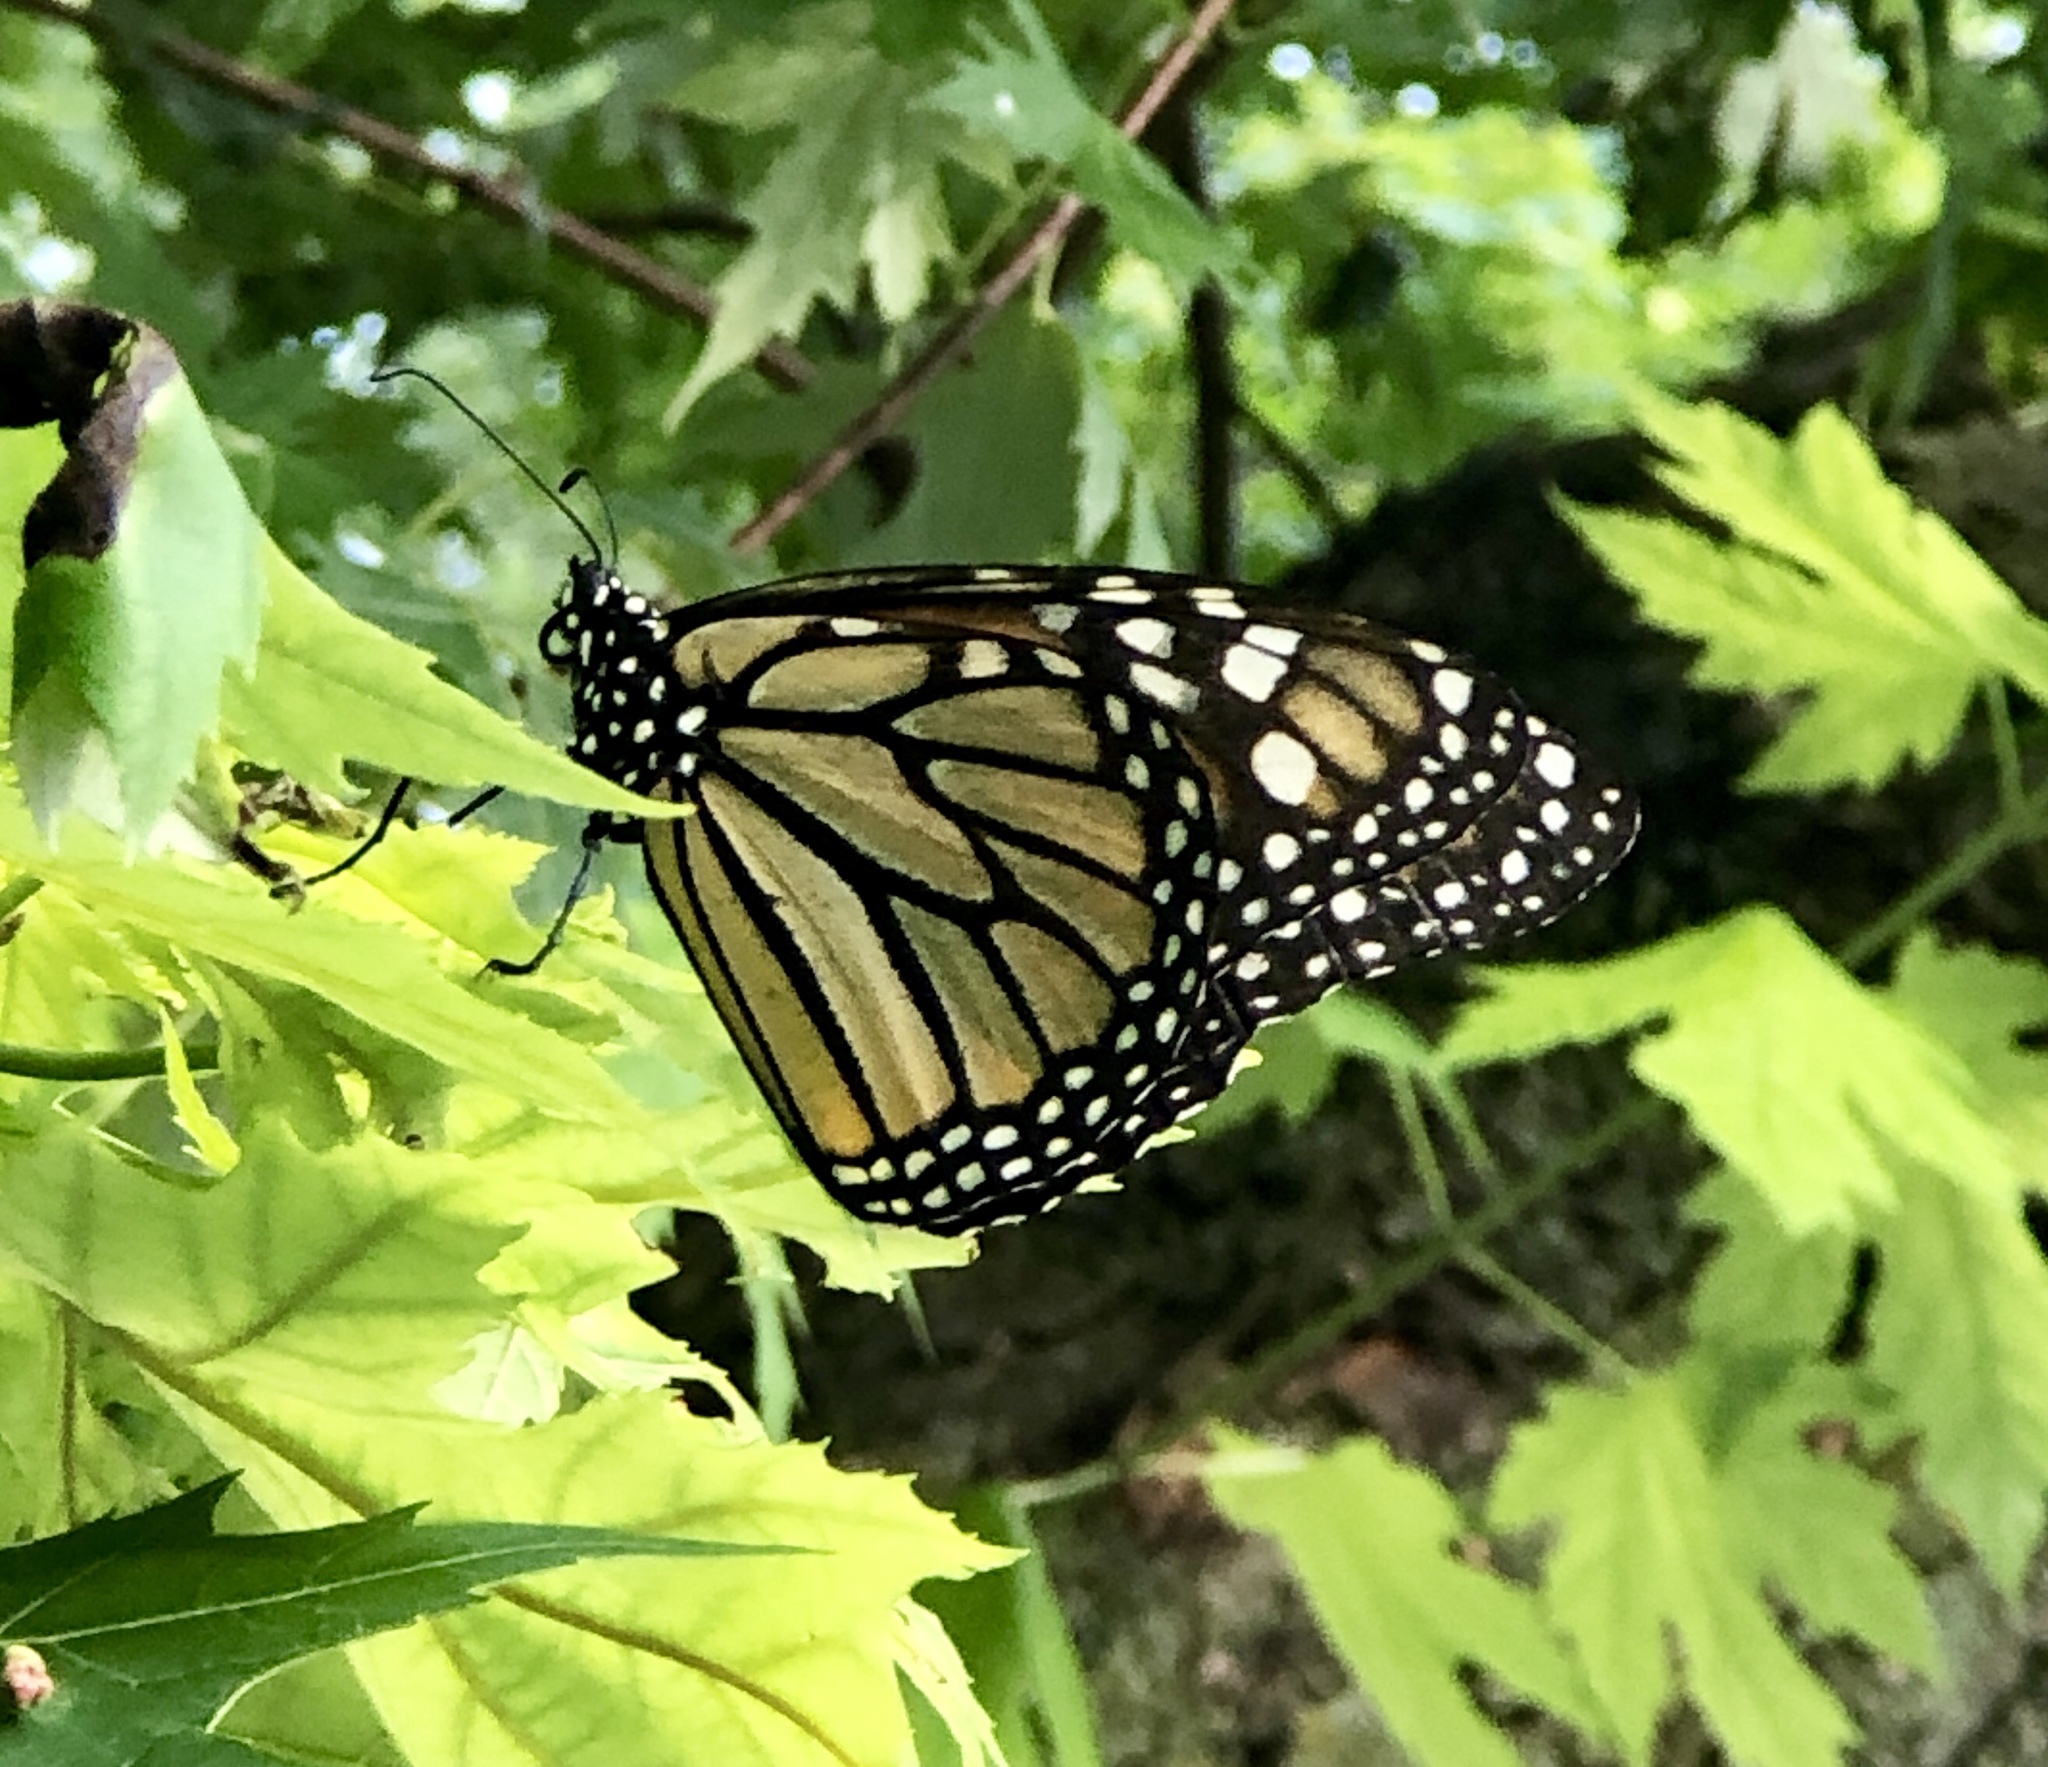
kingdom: Animalia
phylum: Arthropoda
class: Insecta
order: Lepidoptera
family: Nymphalidae
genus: Danaus
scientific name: Danaus plexippus
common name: Monarch
